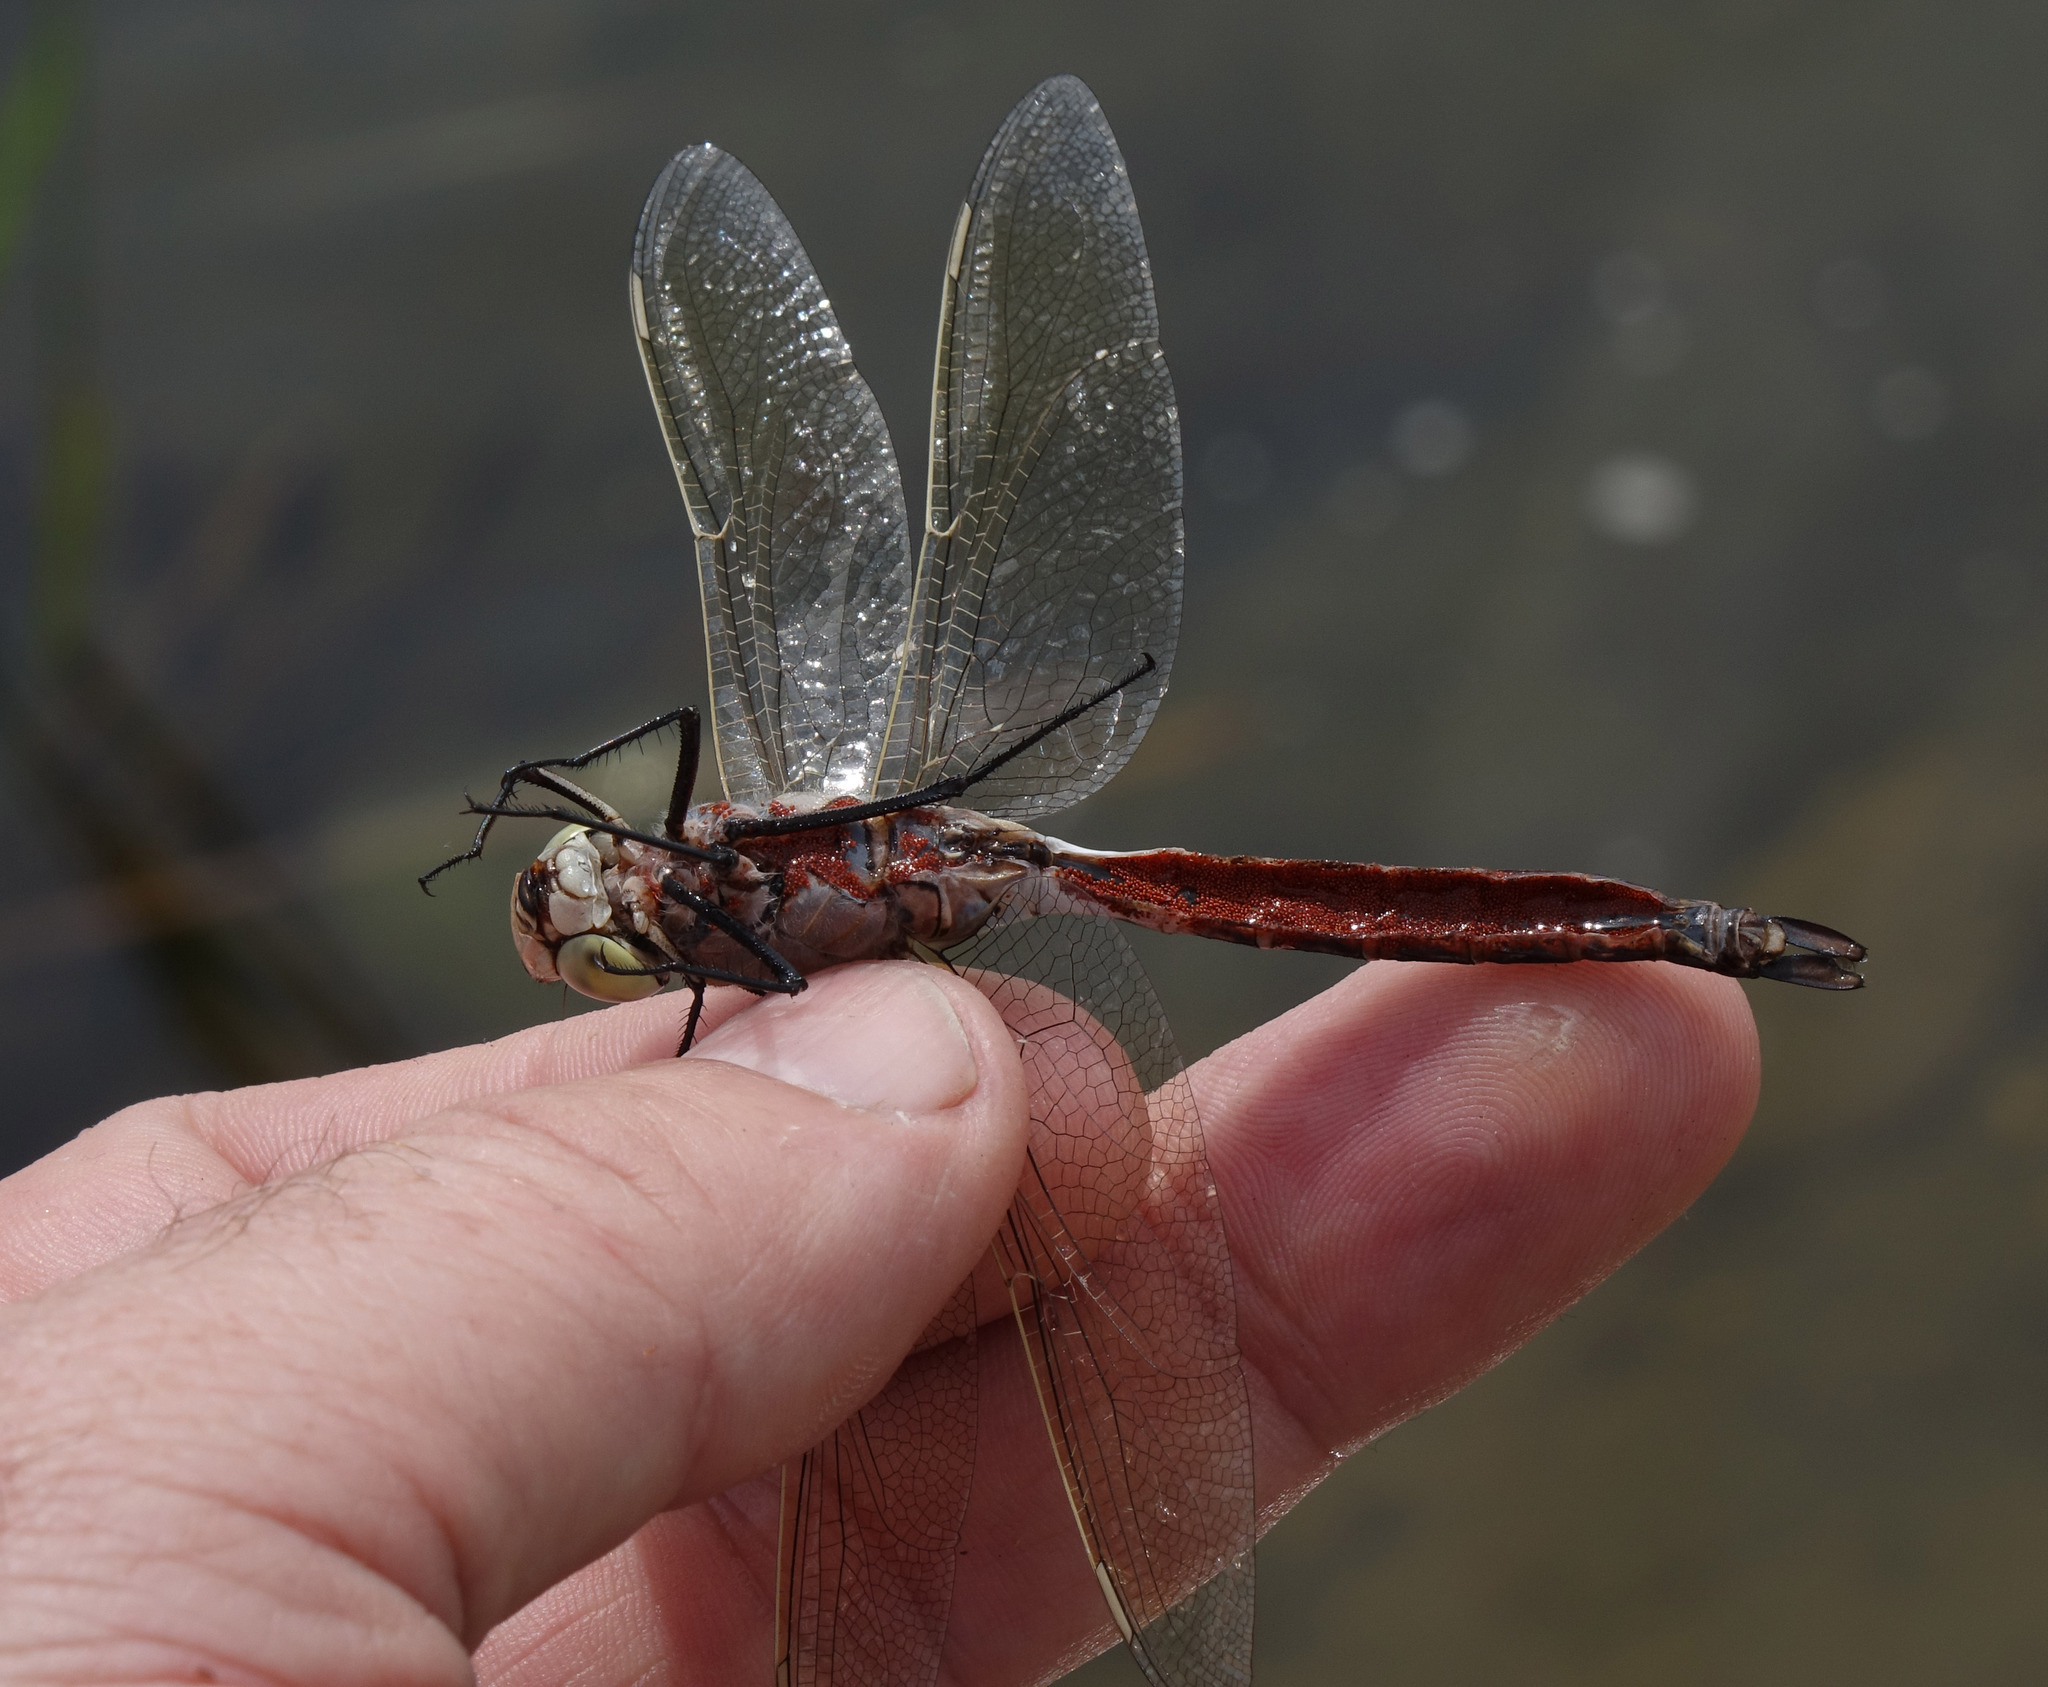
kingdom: Animalia
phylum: Arthropoda
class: Insecta
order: Odonata
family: Aeshnidae
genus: Anax
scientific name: Anax parthenope
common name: Lesser emperor
